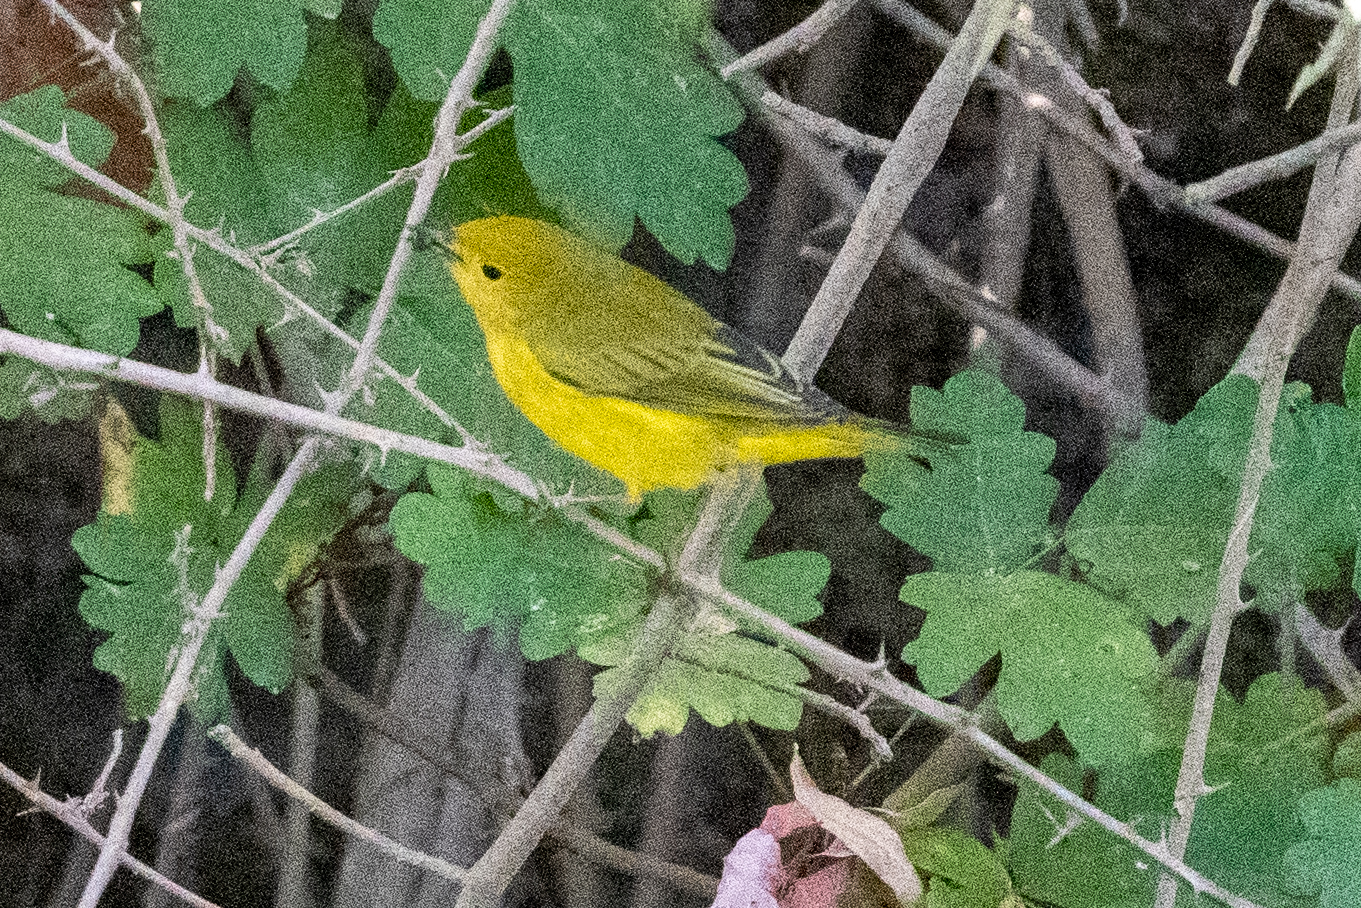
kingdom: Animalia
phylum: Chordata
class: Aves
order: Passeriformes
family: Parulidae
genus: Setophaga
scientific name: Setophaga petechia
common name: Yellow warbler
